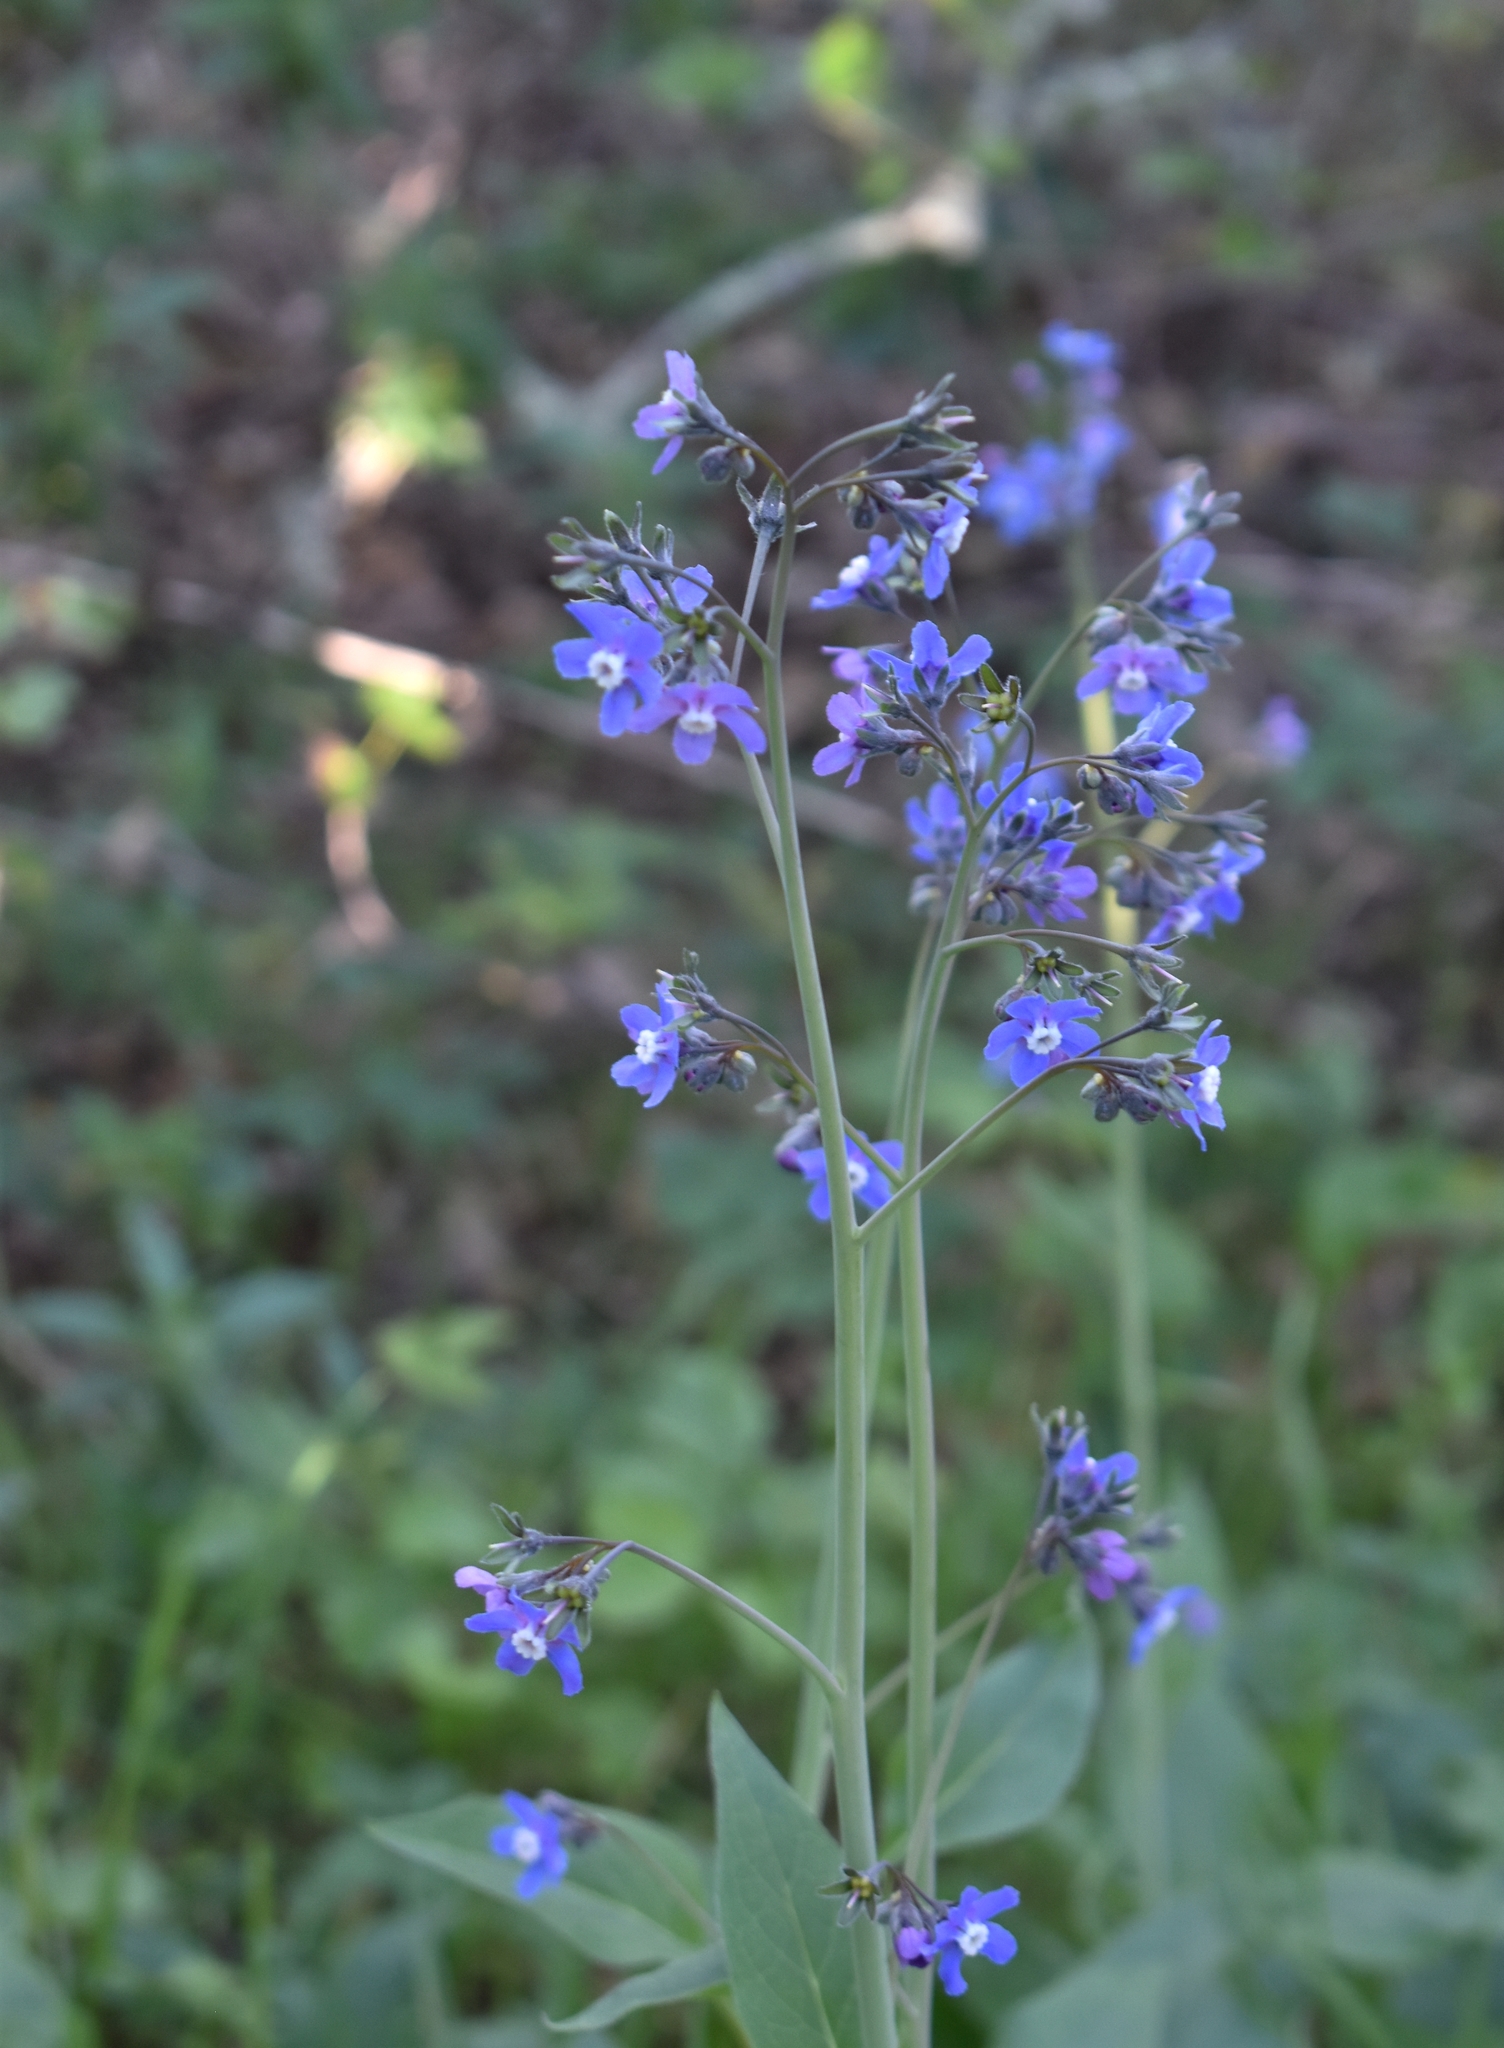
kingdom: Plantae
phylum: Tracheophyta
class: Magnoliopsida
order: Boraginales
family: Boraginaceae
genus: Adelinia
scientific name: Adelinia grande
